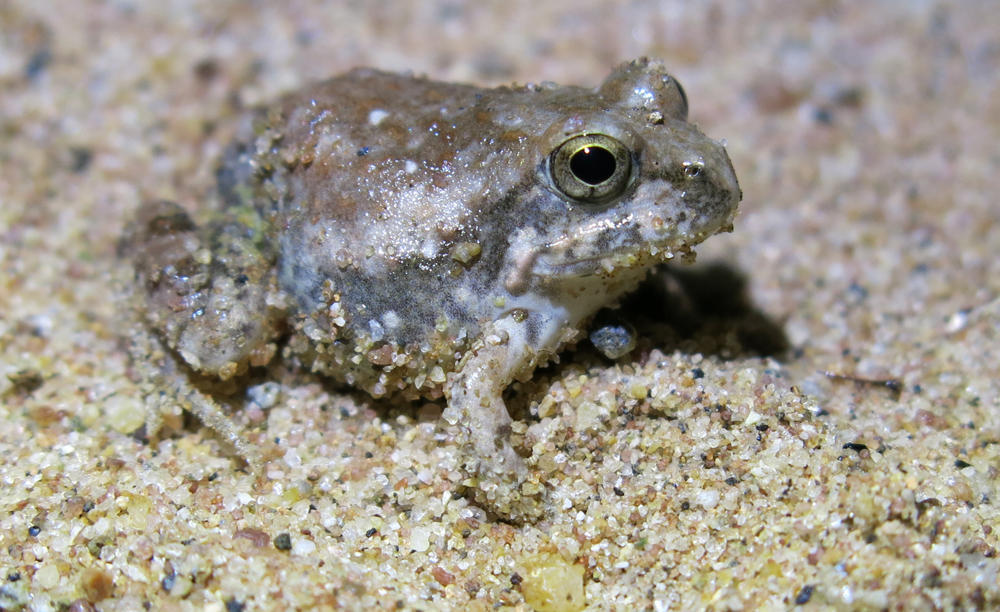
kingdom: Animalia
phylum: Chordata
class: Amphibia
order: Anura
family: Pyxicephalidae
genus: Tomopterna
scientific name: Tomopterna marmorata
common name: Russet-backed sand frog
